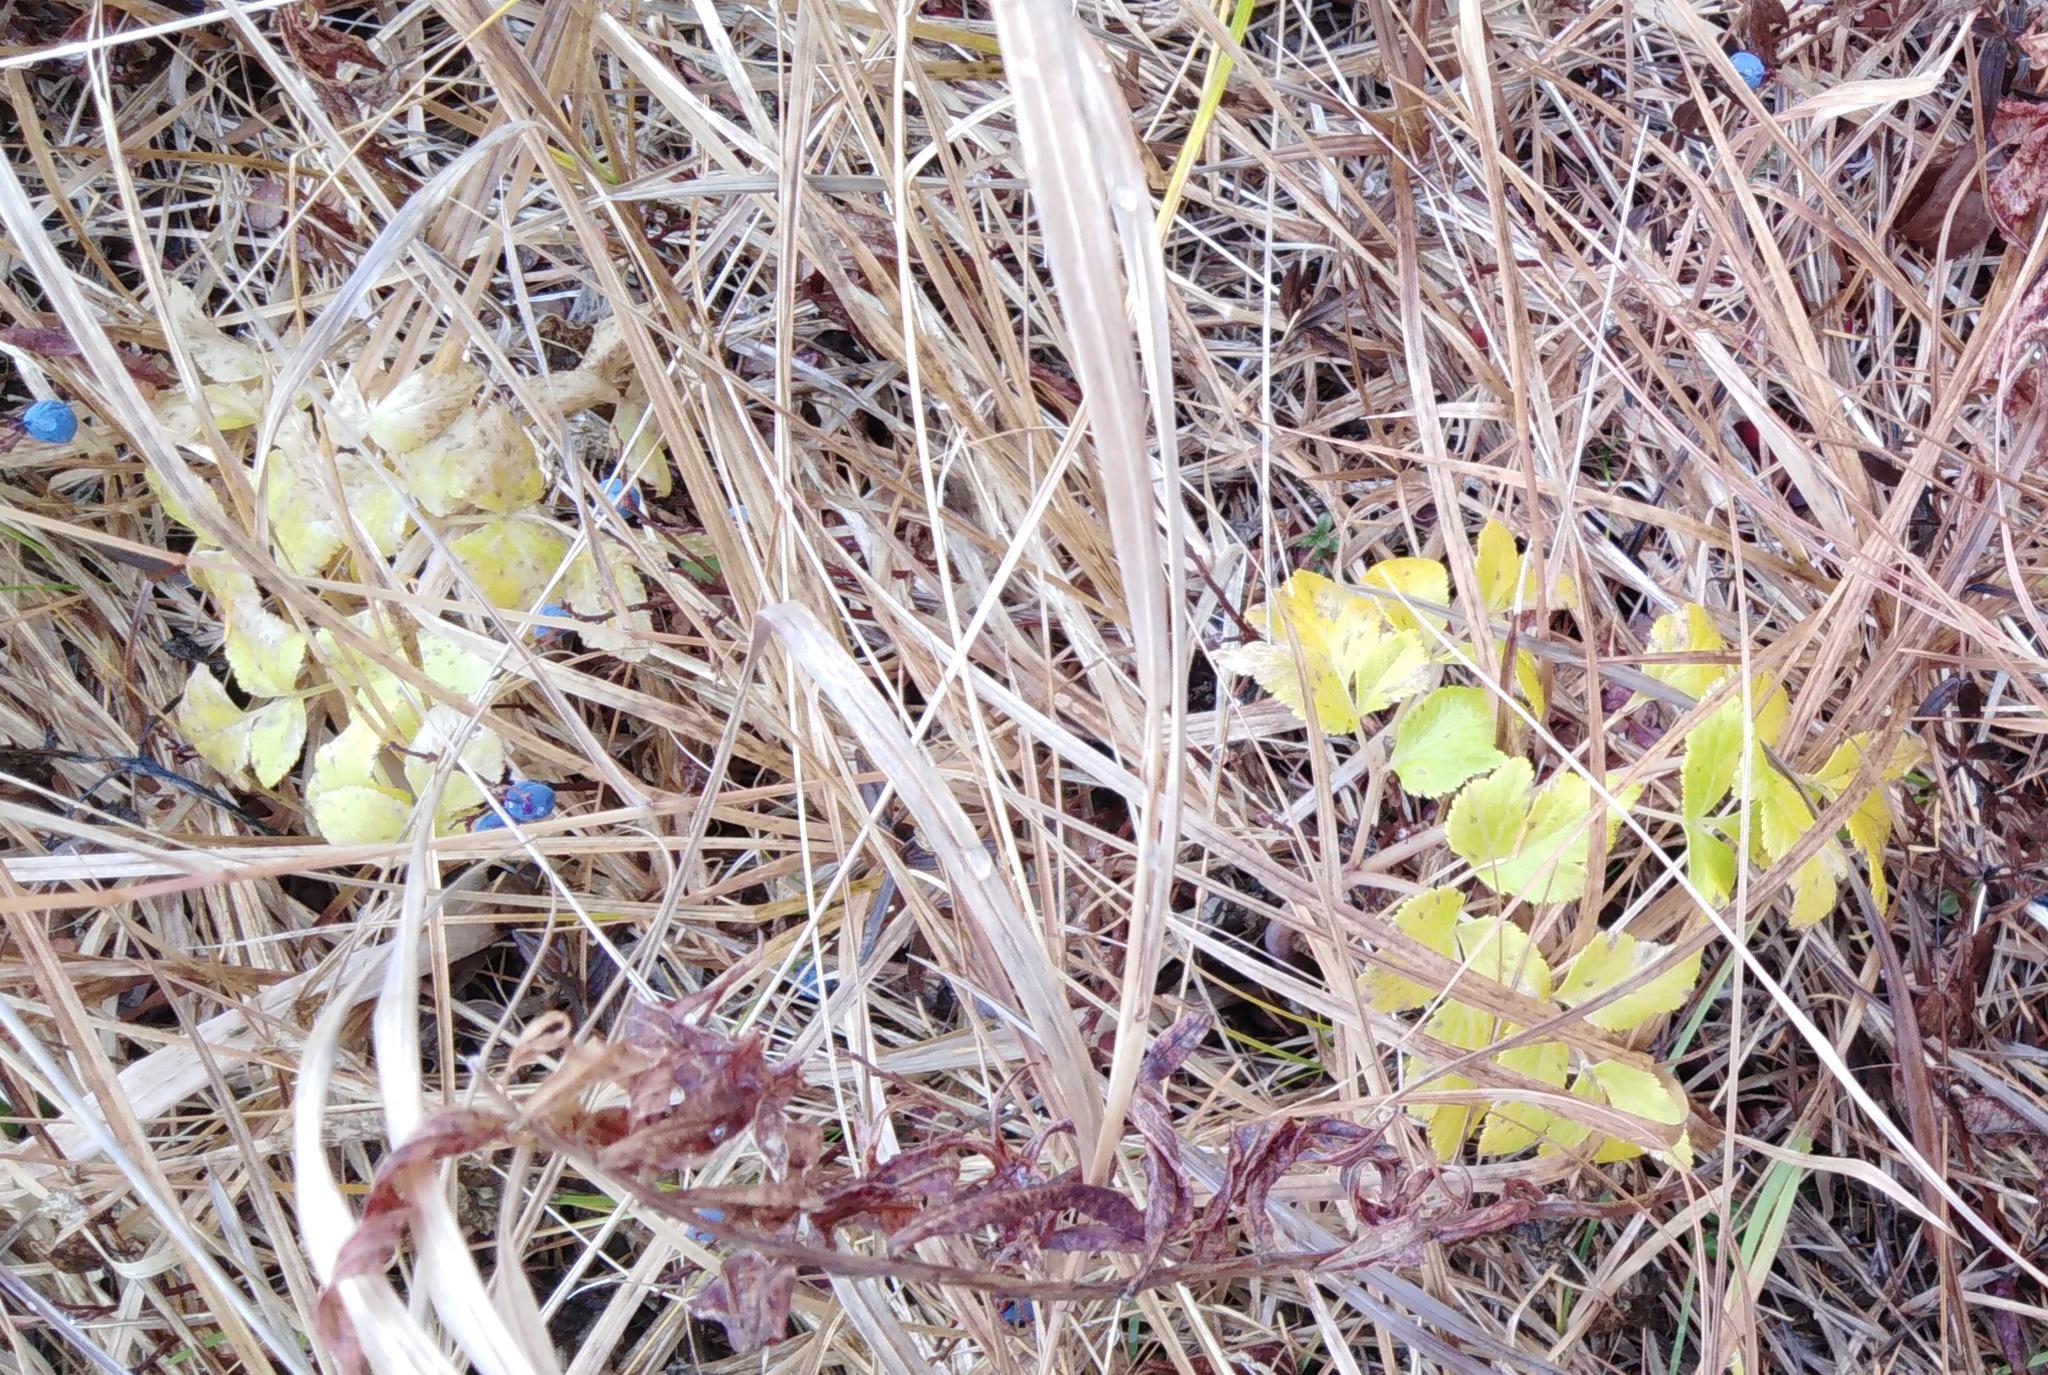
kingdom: Plantae
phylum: Tracheophyta
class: Magnoliopsida
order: Apiales
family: Apiaceae
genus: Angelica
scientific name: Angelica gmelinii
